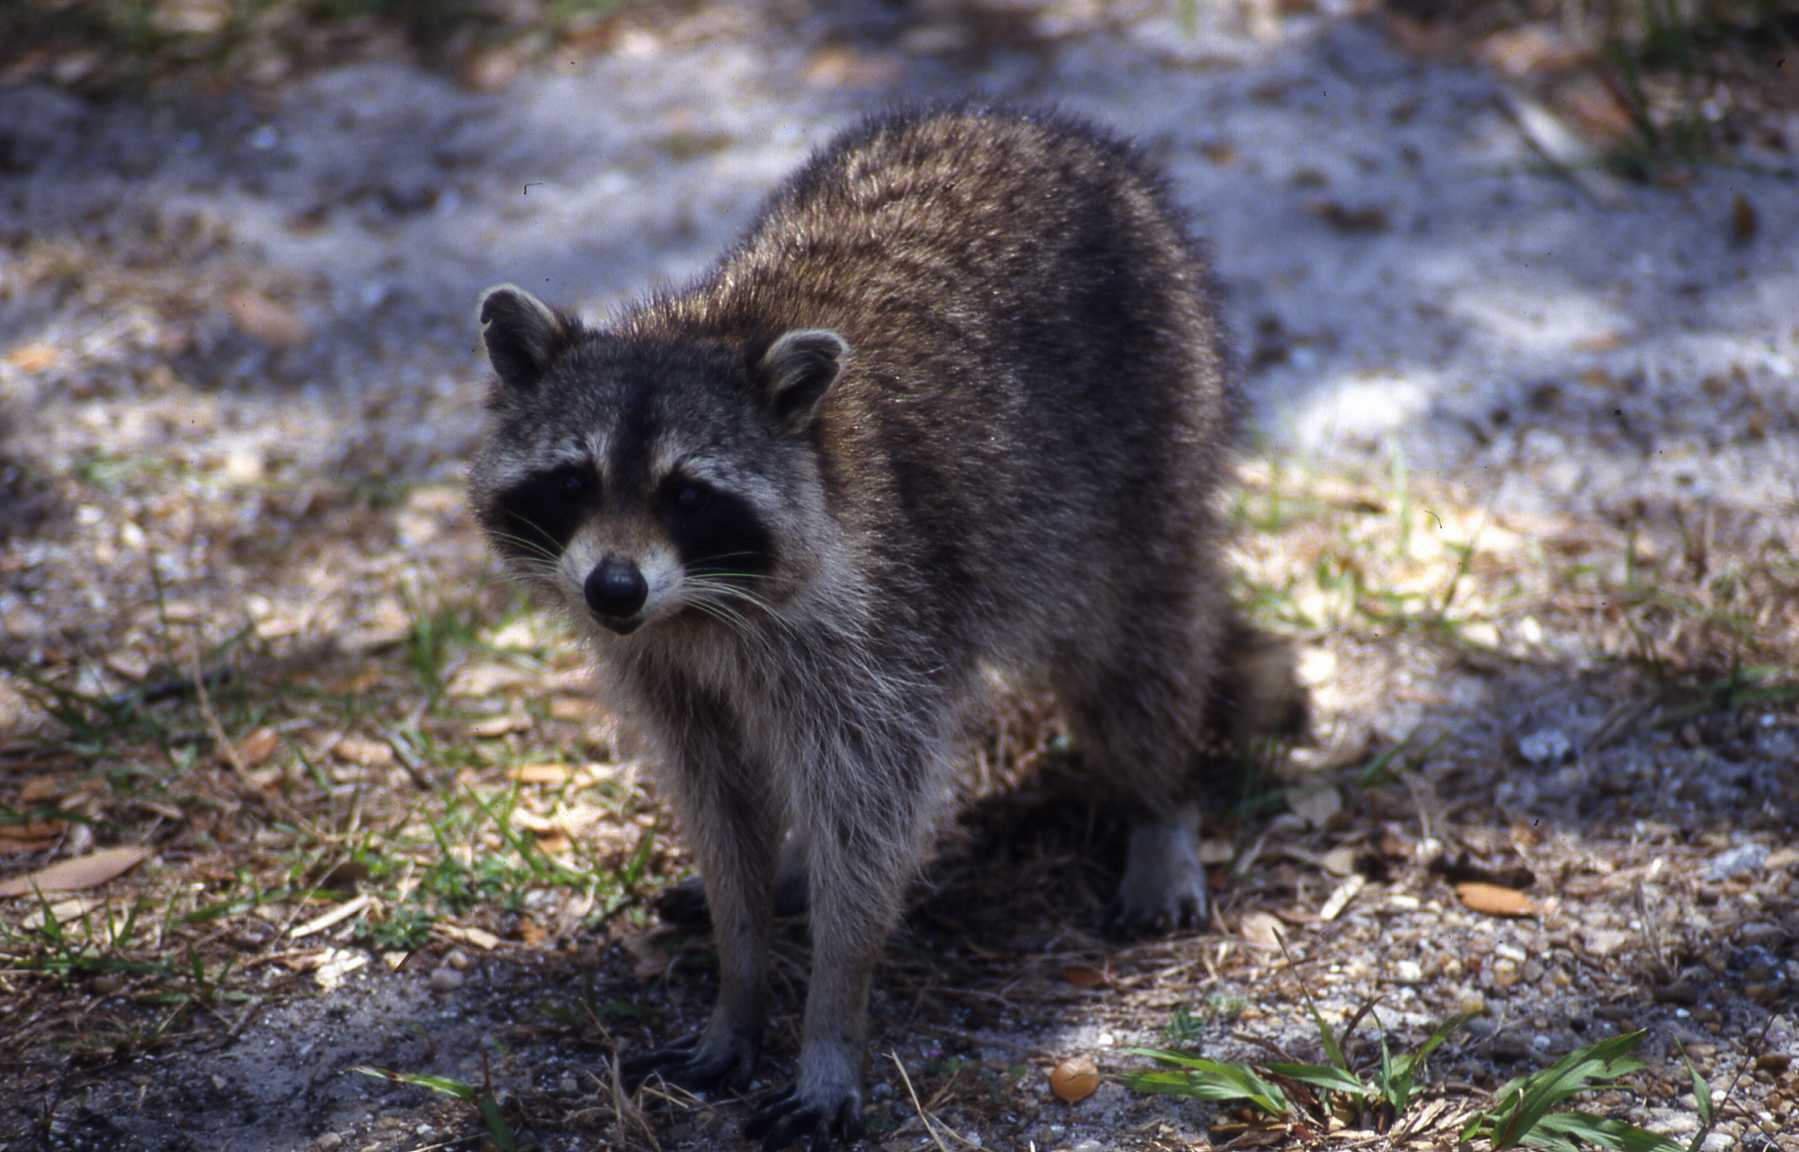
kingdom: Animalia
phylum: Chordata
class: Mammalia
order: Carnivora
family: Procyonidae
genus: Procyon
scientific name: Procyon lotor
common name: Raccoon
